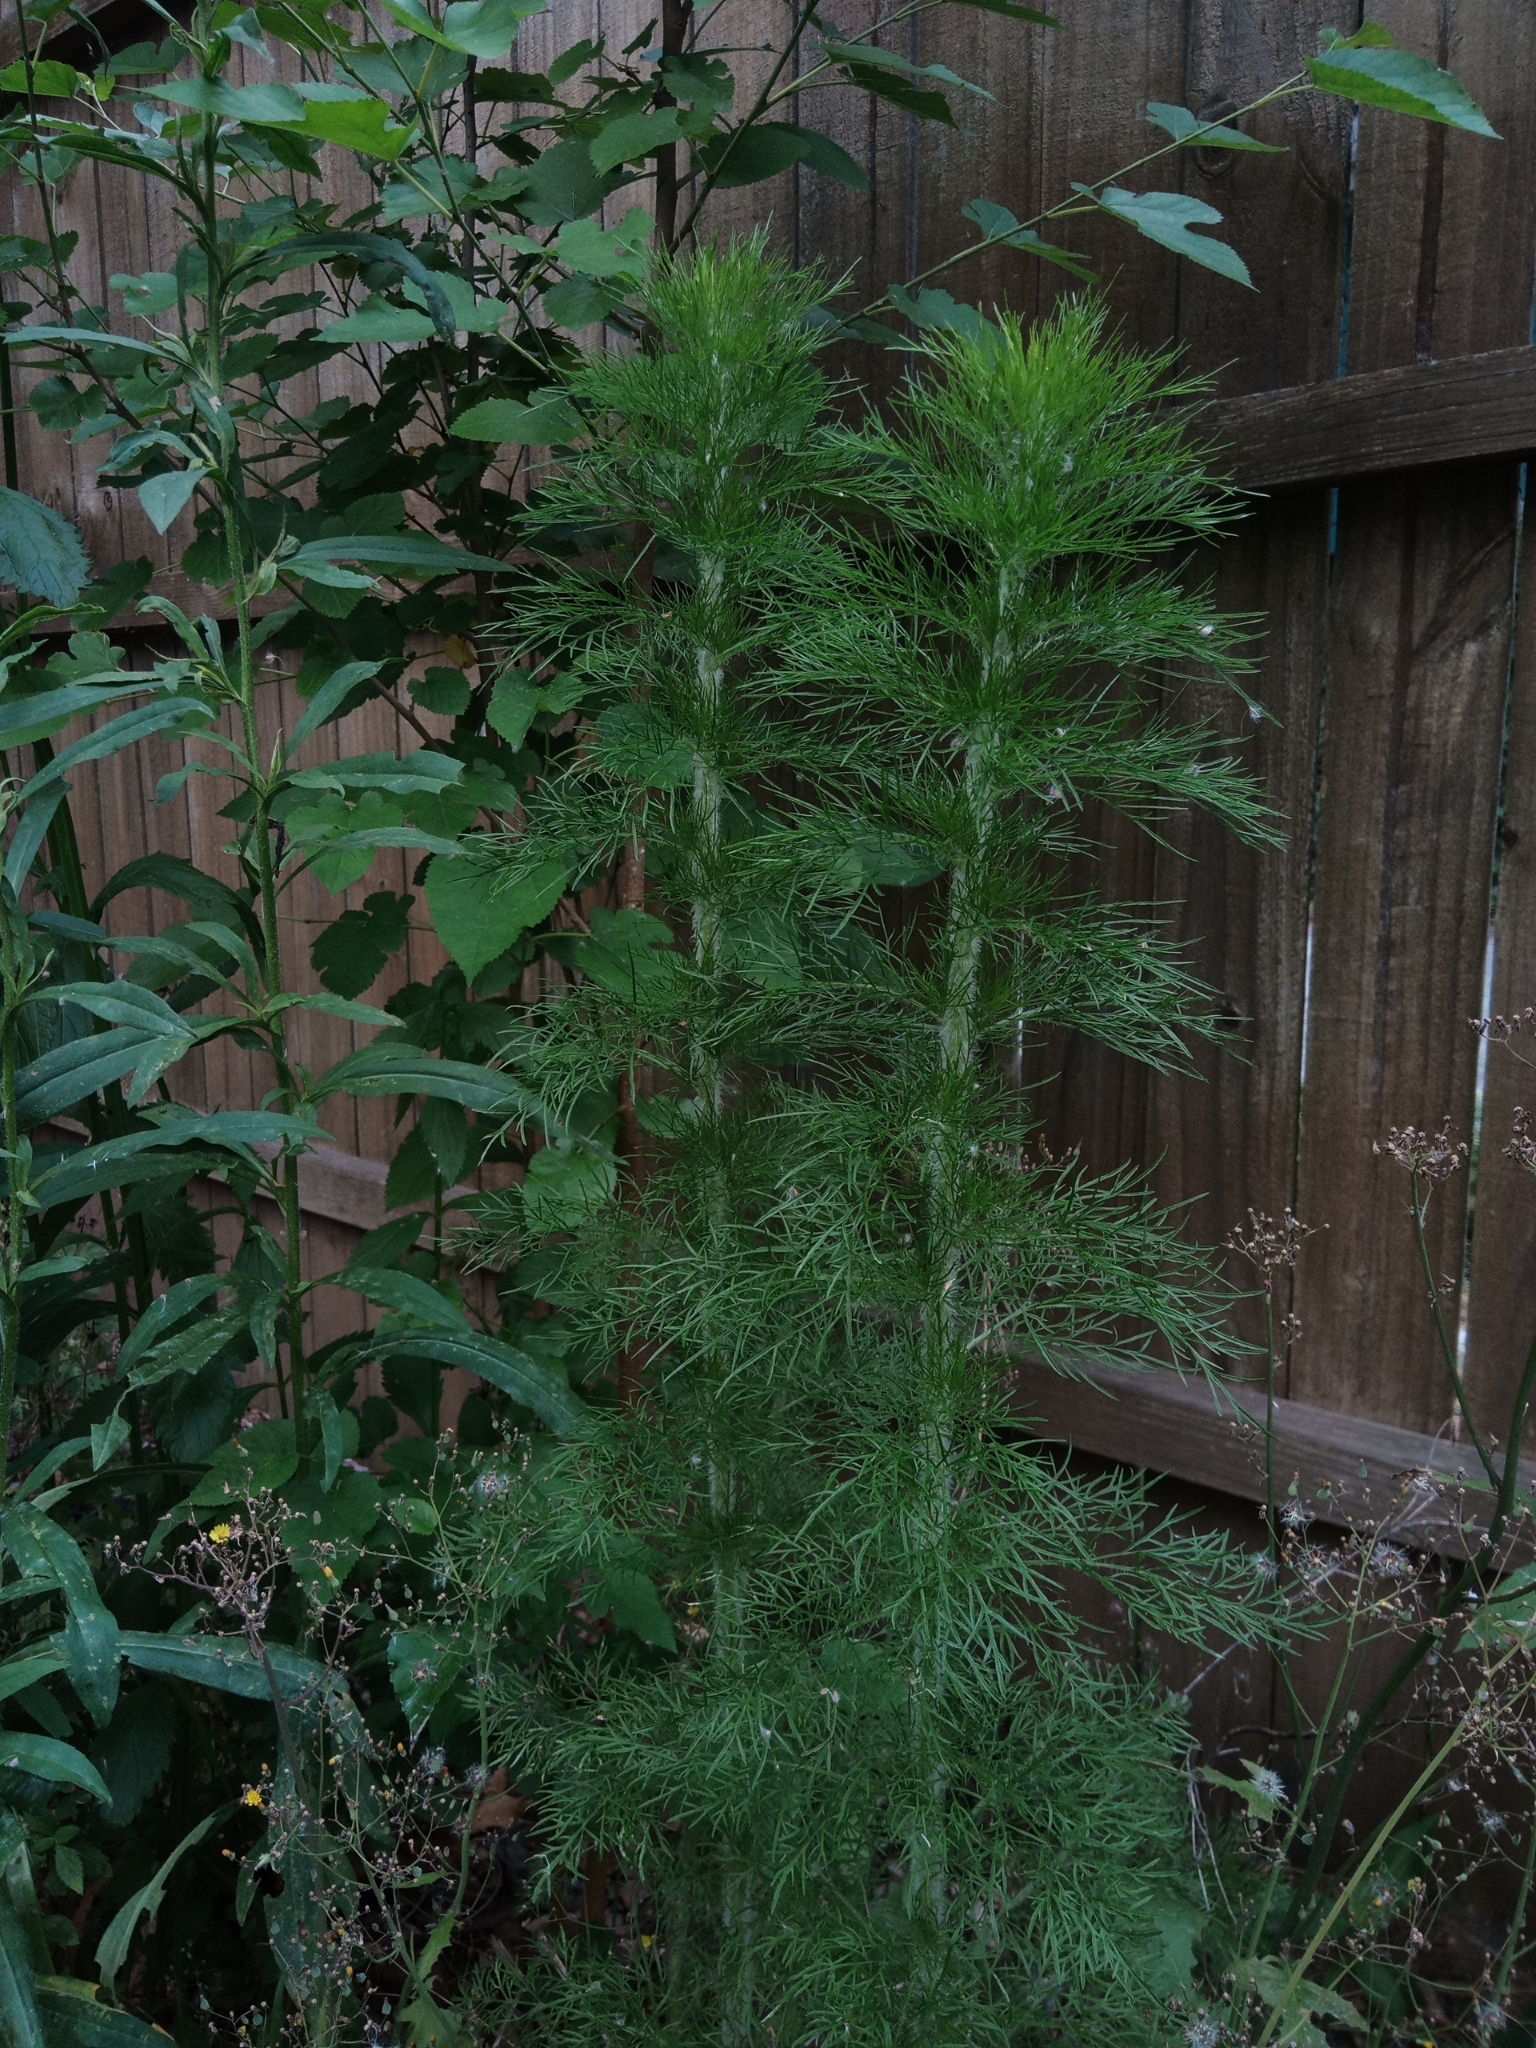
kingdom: Plantae
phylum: Tracheophyta
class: Magnoliopsida
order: Asterales
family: Asteraceae
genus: Eupatorium
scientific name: Eupatorium capillifolium
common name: Dog-fennel
